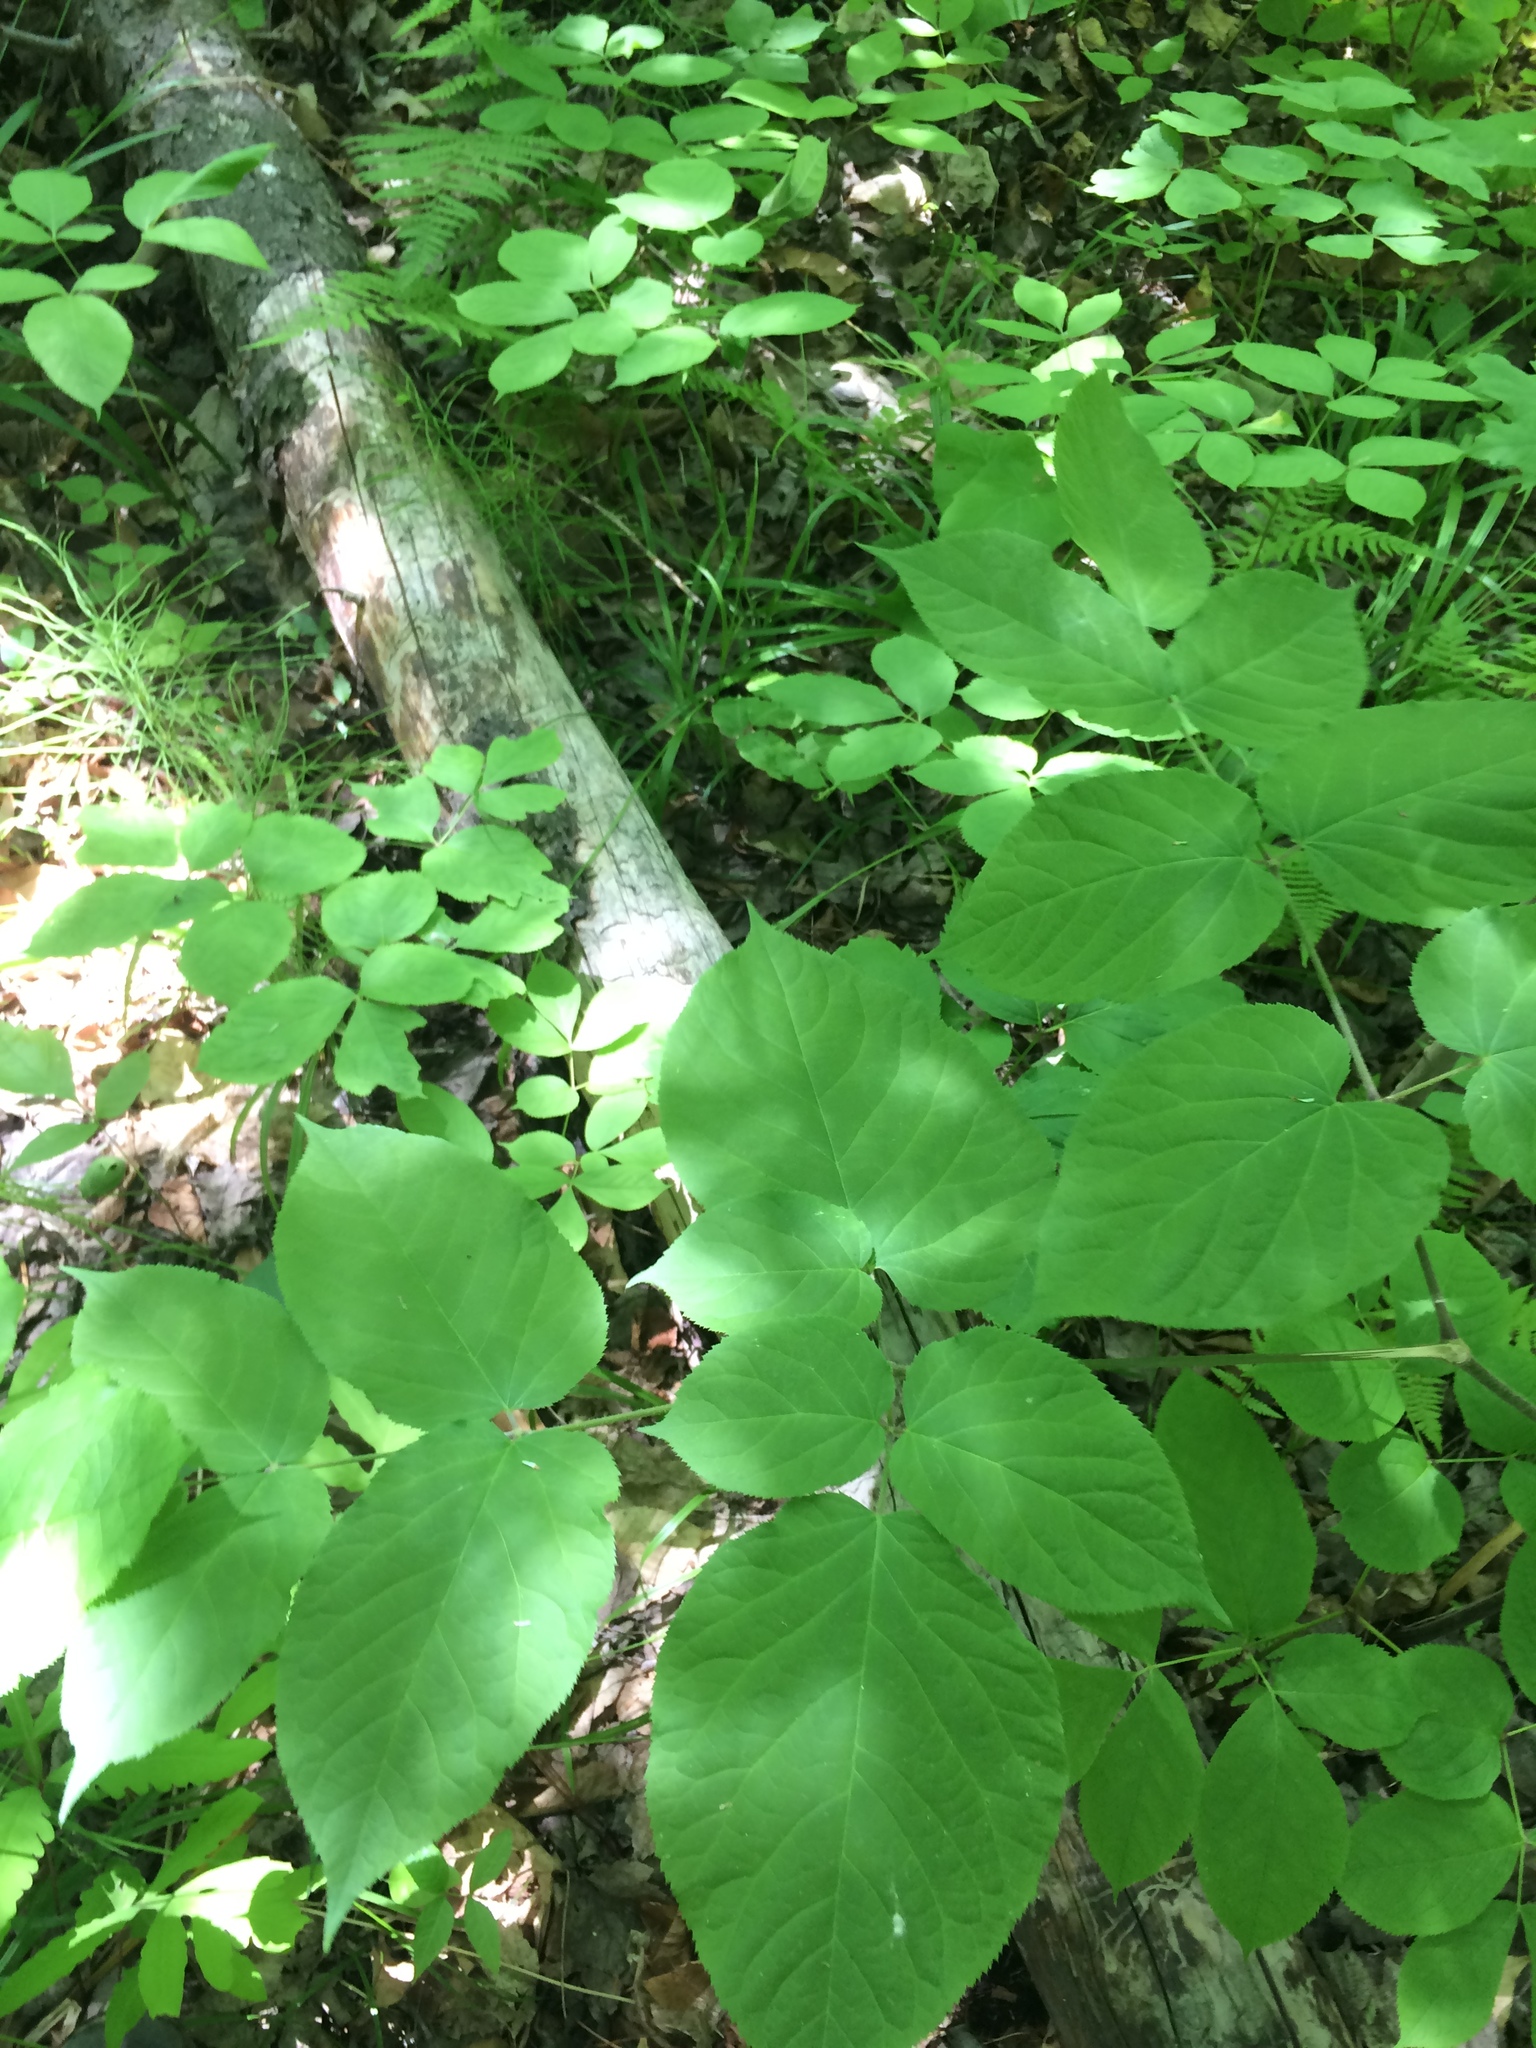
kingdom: Plantae
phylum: Tracheophyta
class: Magnoliopsida
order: Apiales
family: Araliaceae
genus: Aralia
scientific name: Aralia racemosa
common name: American-spikenard
